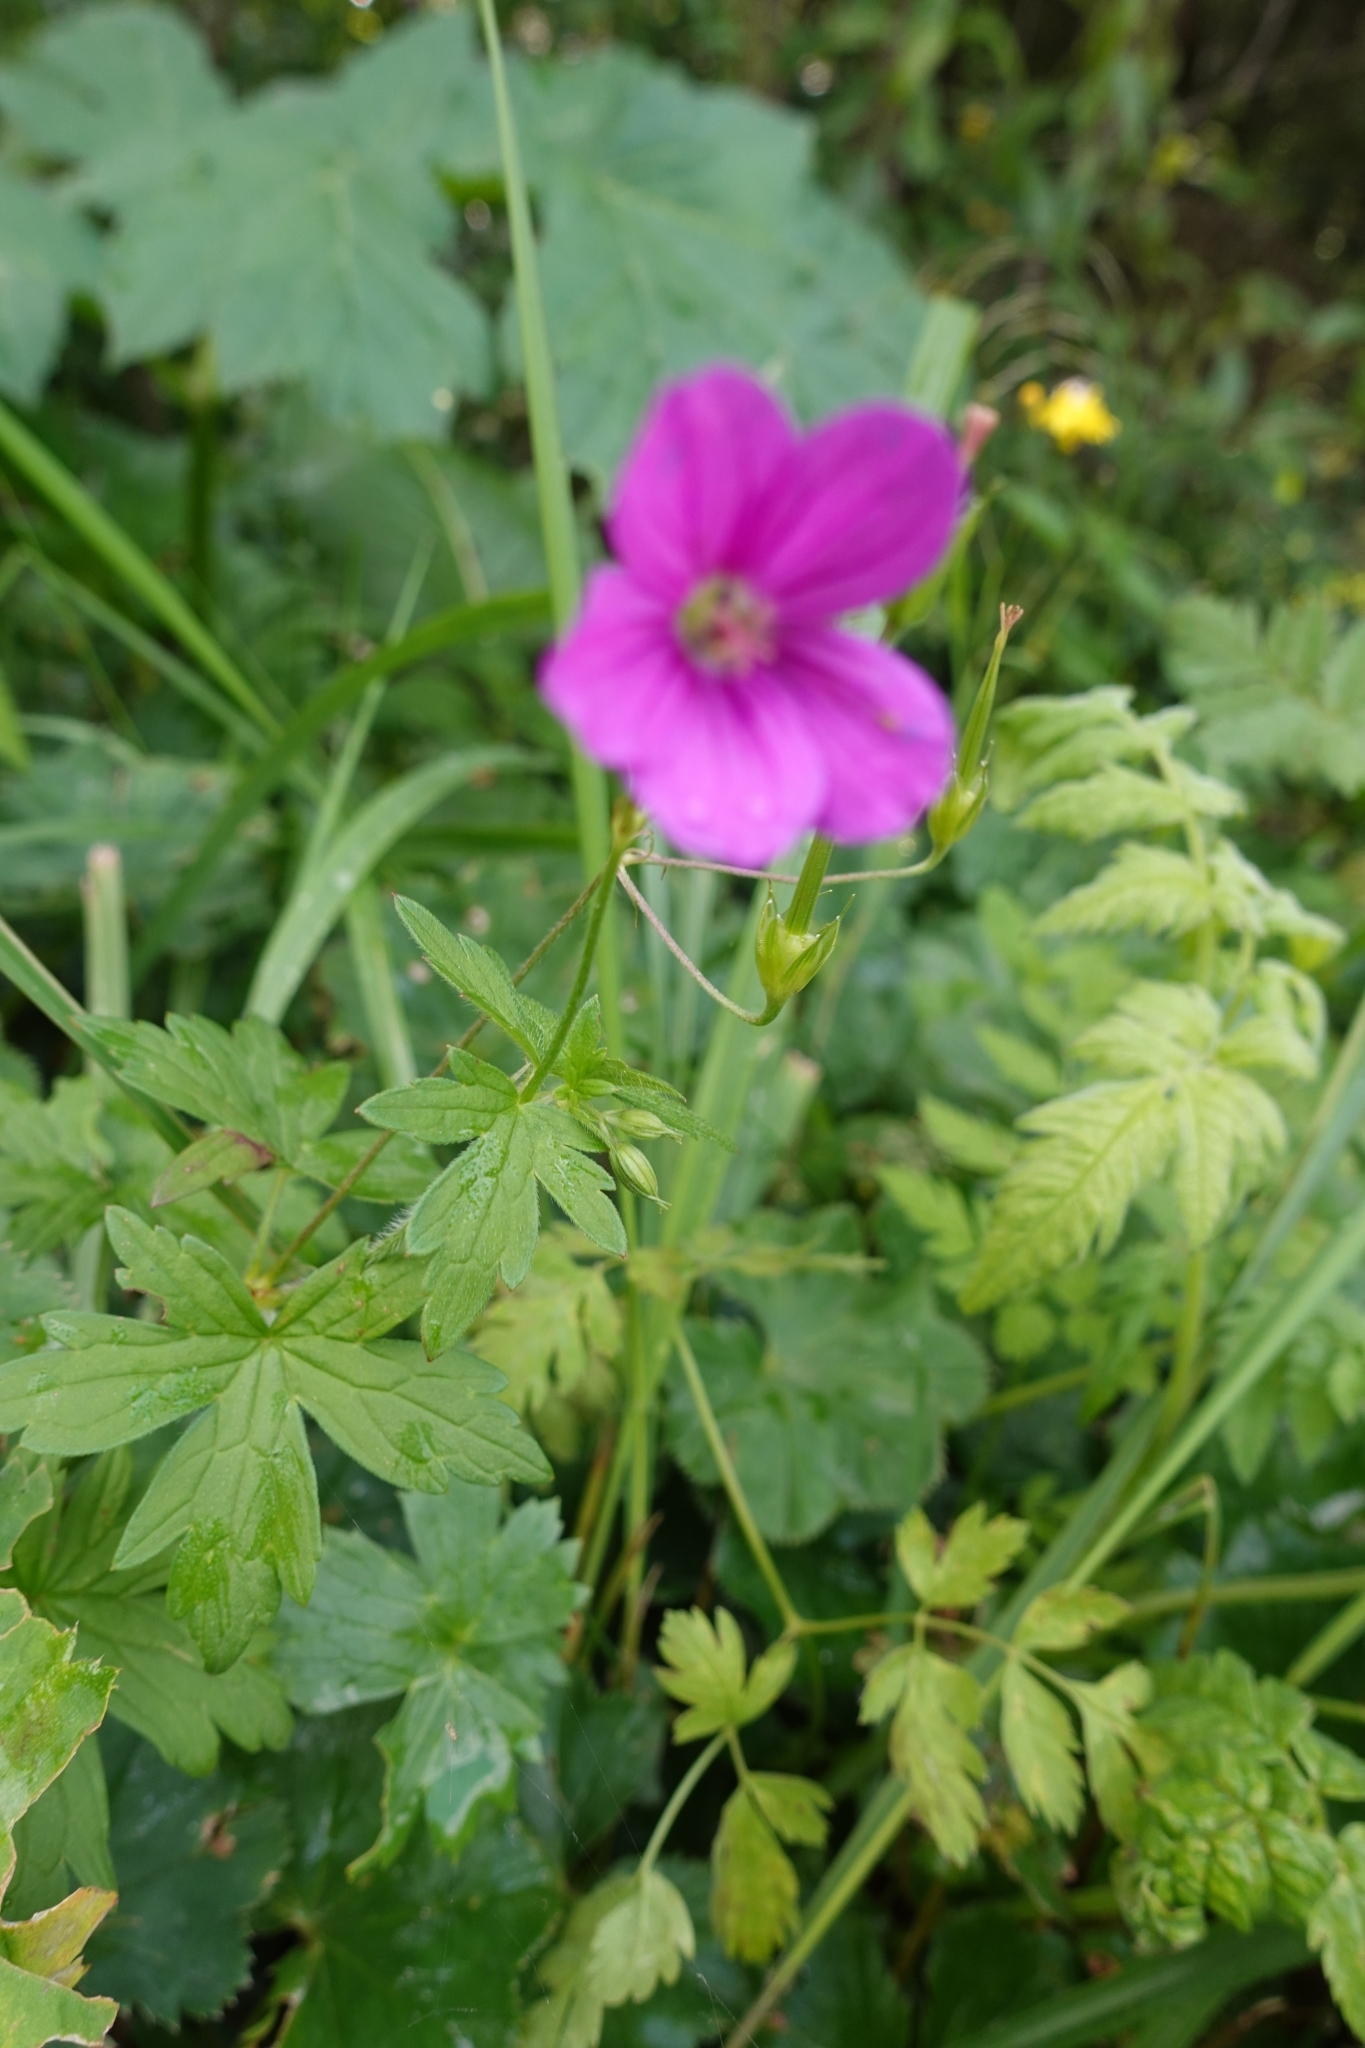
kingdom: Plantae
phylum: Tracheophyta
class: Magnoliopsida
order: Geraniales
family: Geraniaceae
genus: Geranium
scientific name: Geranium palustre
